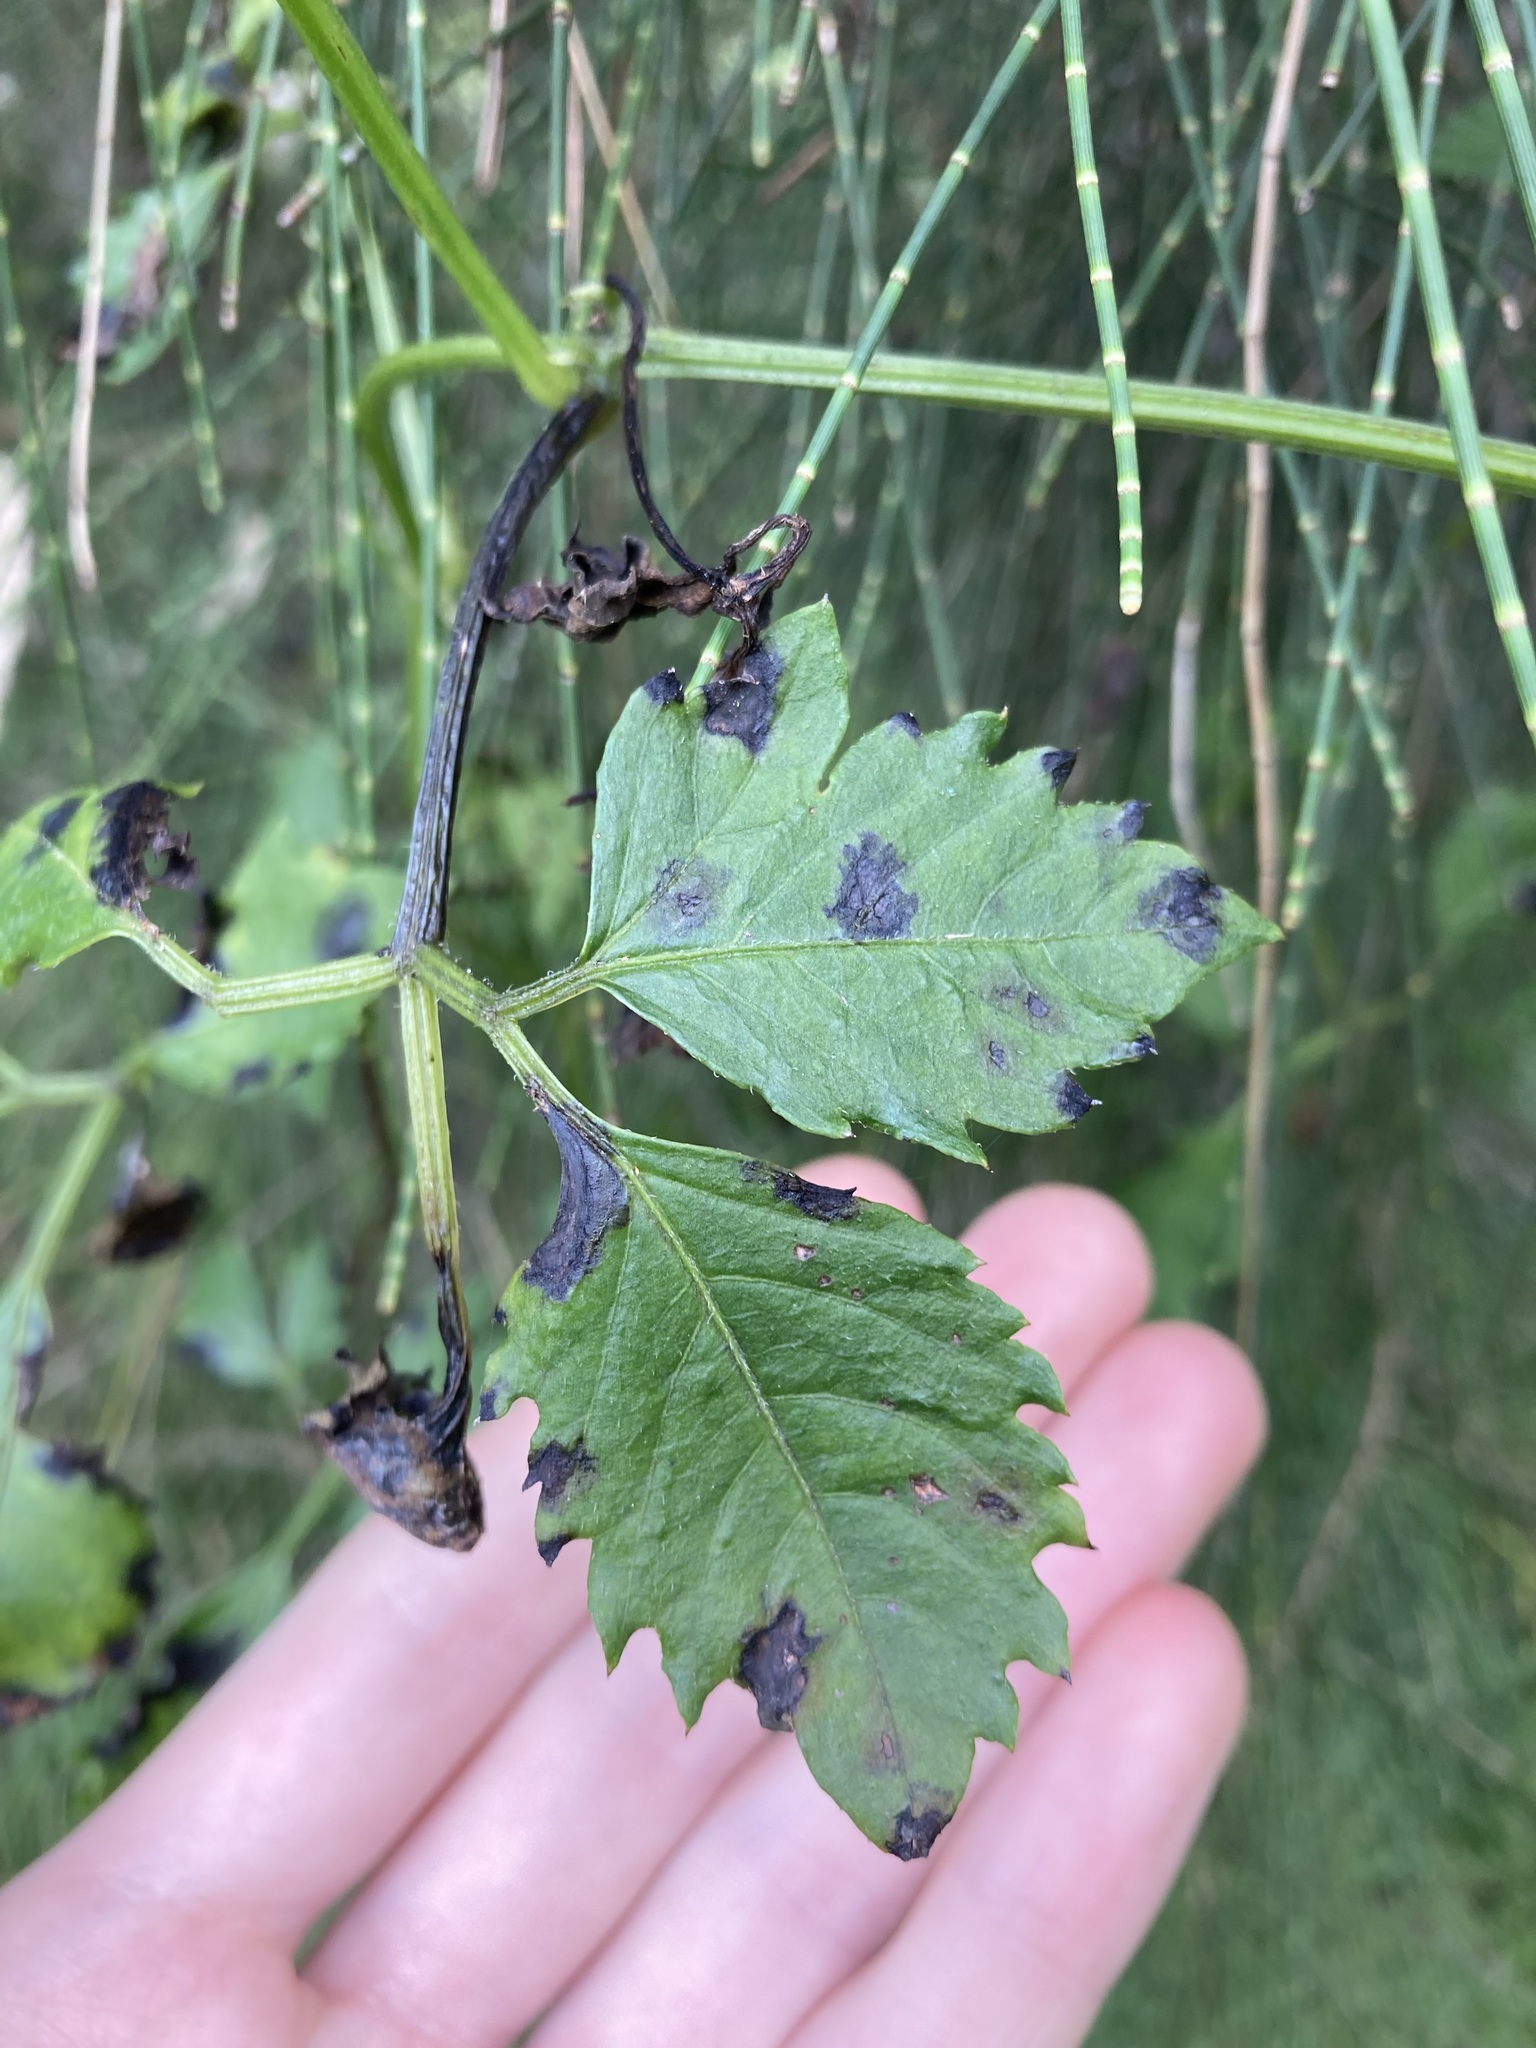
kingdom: Plantae
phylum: Tracheophyta
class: Magnoliopsida
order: Vitales
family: Vitaceae
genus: Causonis
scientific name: Causonis clematidea
